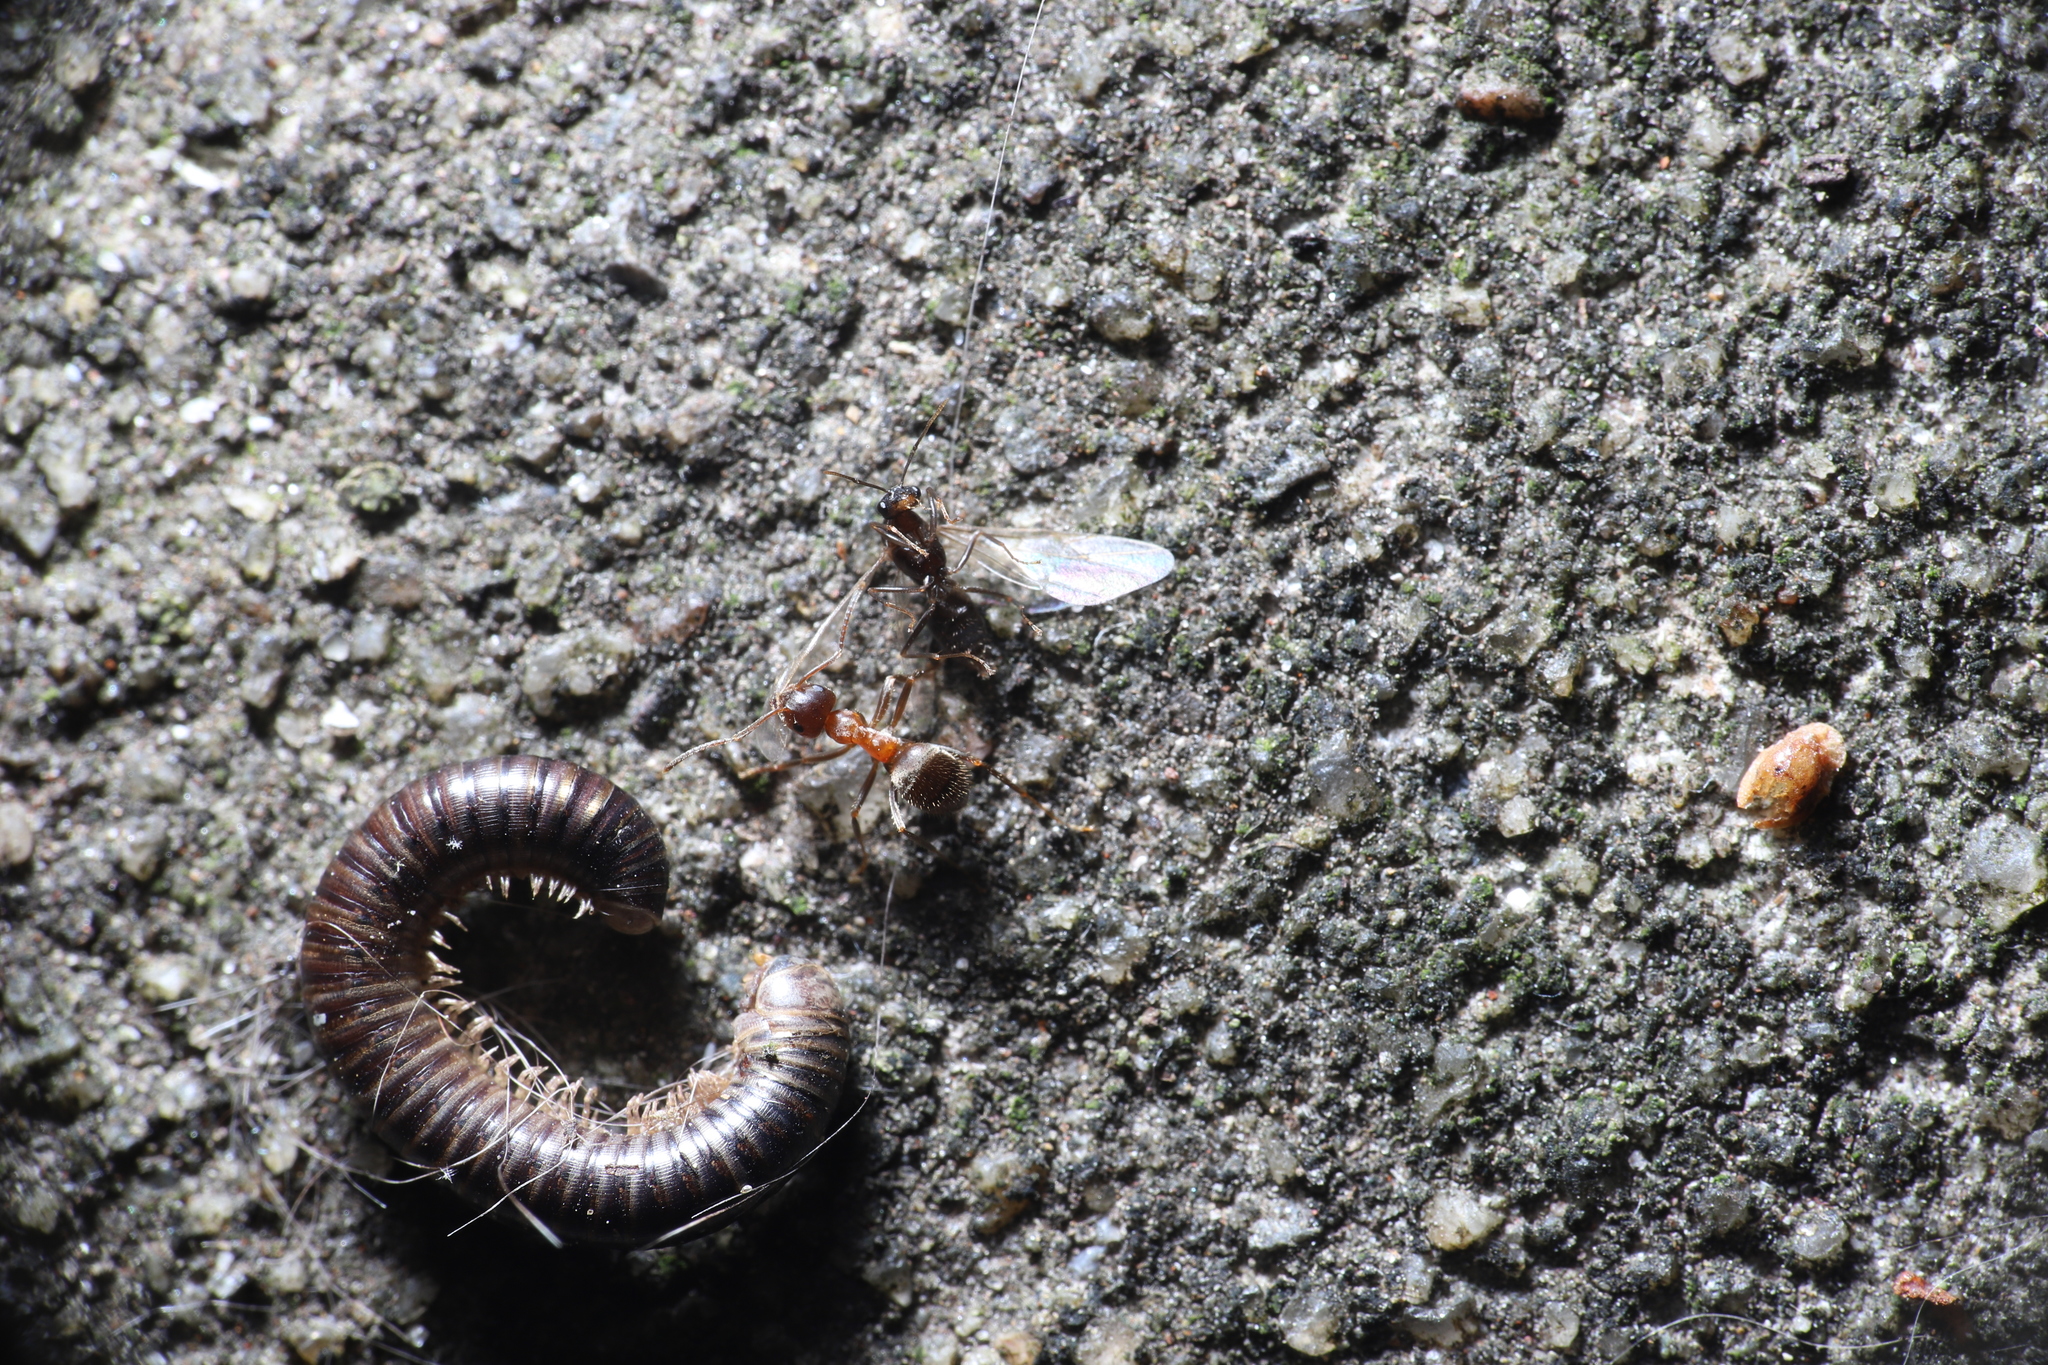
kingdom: Animalia
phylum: Arthropoda
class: Insecta
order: Hymenoptera
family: Formicidae
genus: Lasius
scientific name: Lasius emarginatus
